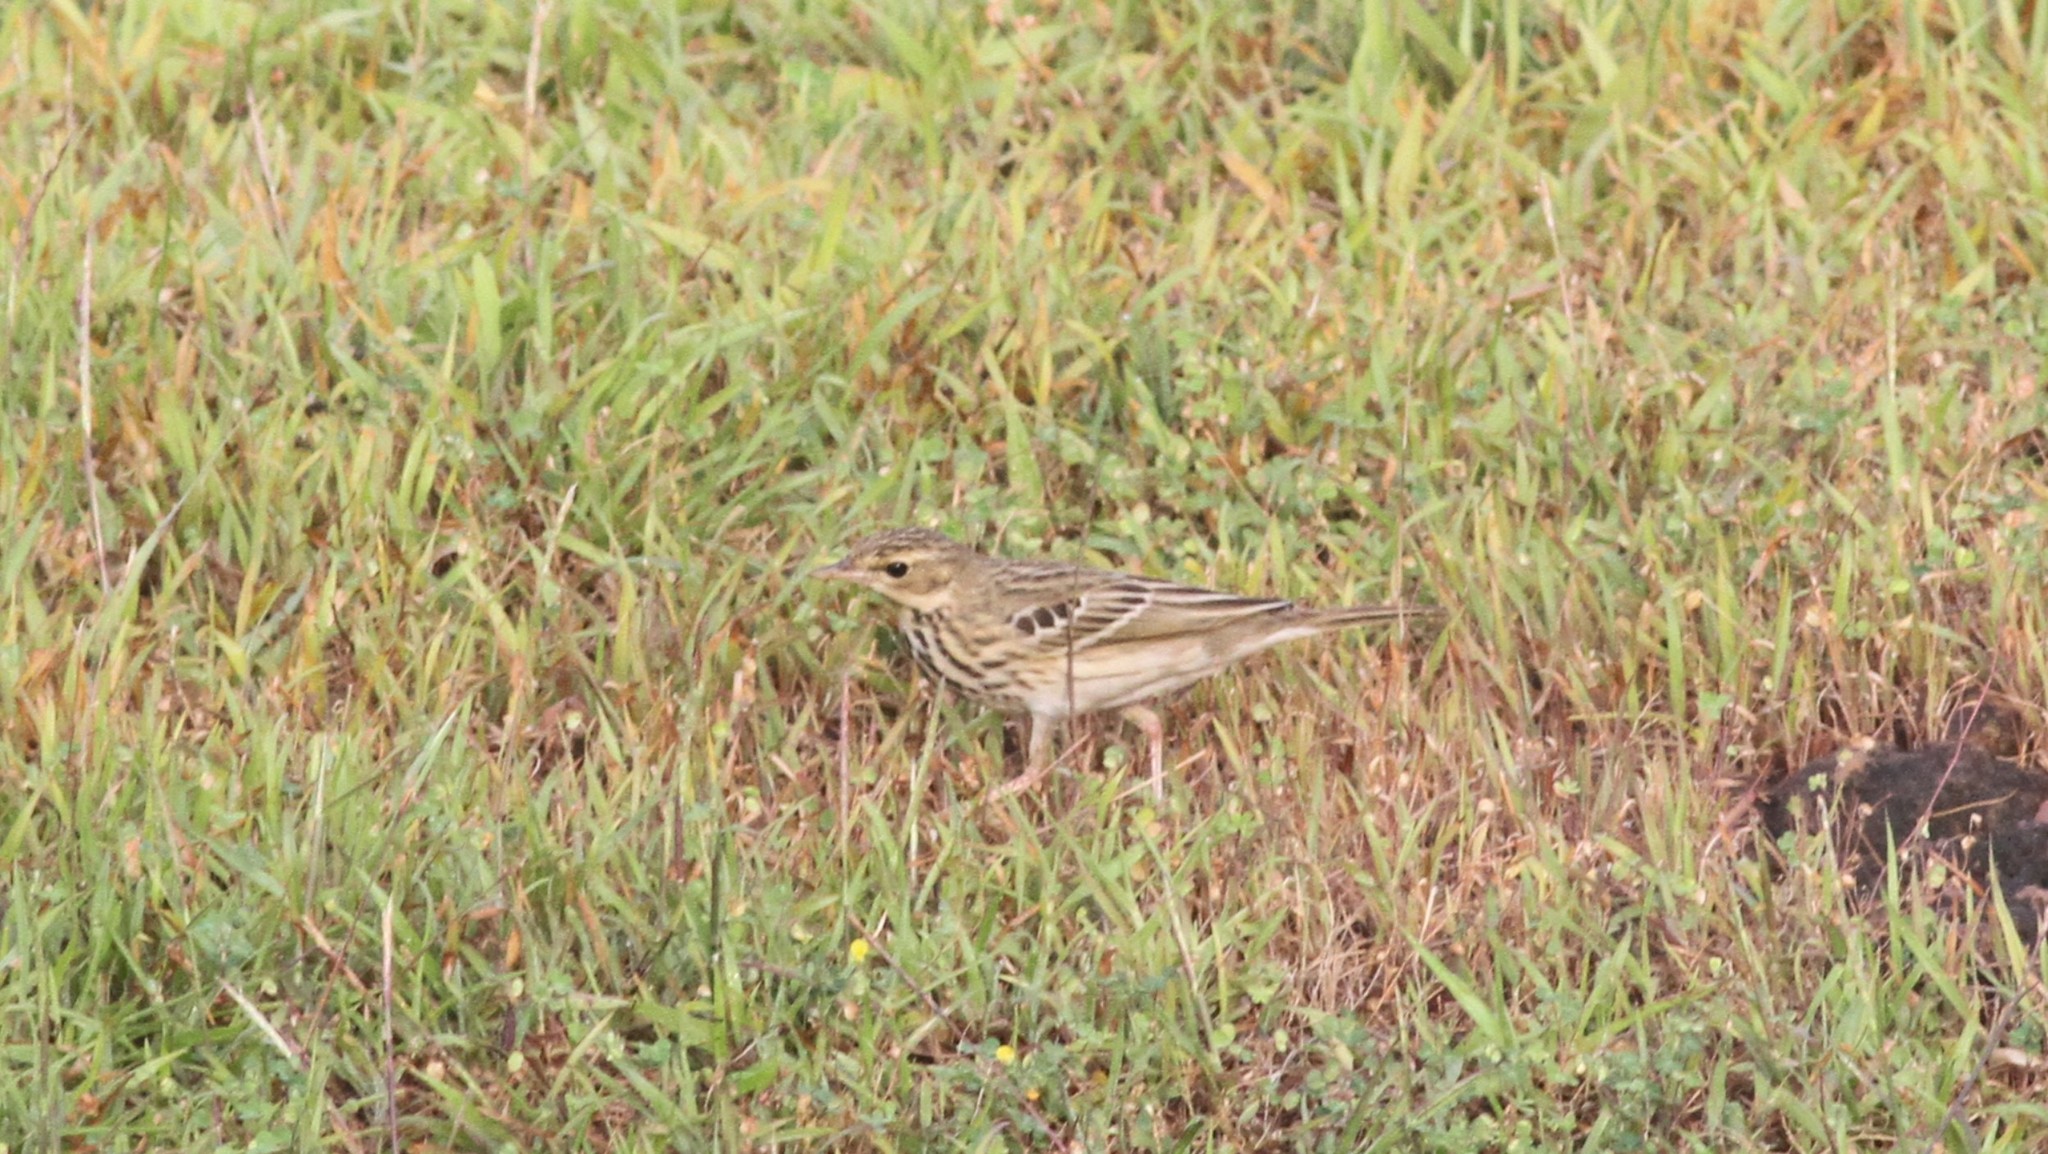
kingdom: Animalia
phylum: Chordata
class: Aves
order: Passeriformes
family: Motacillidae
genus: Anthus
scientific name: Anthus trivialis
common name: Tree pipit
